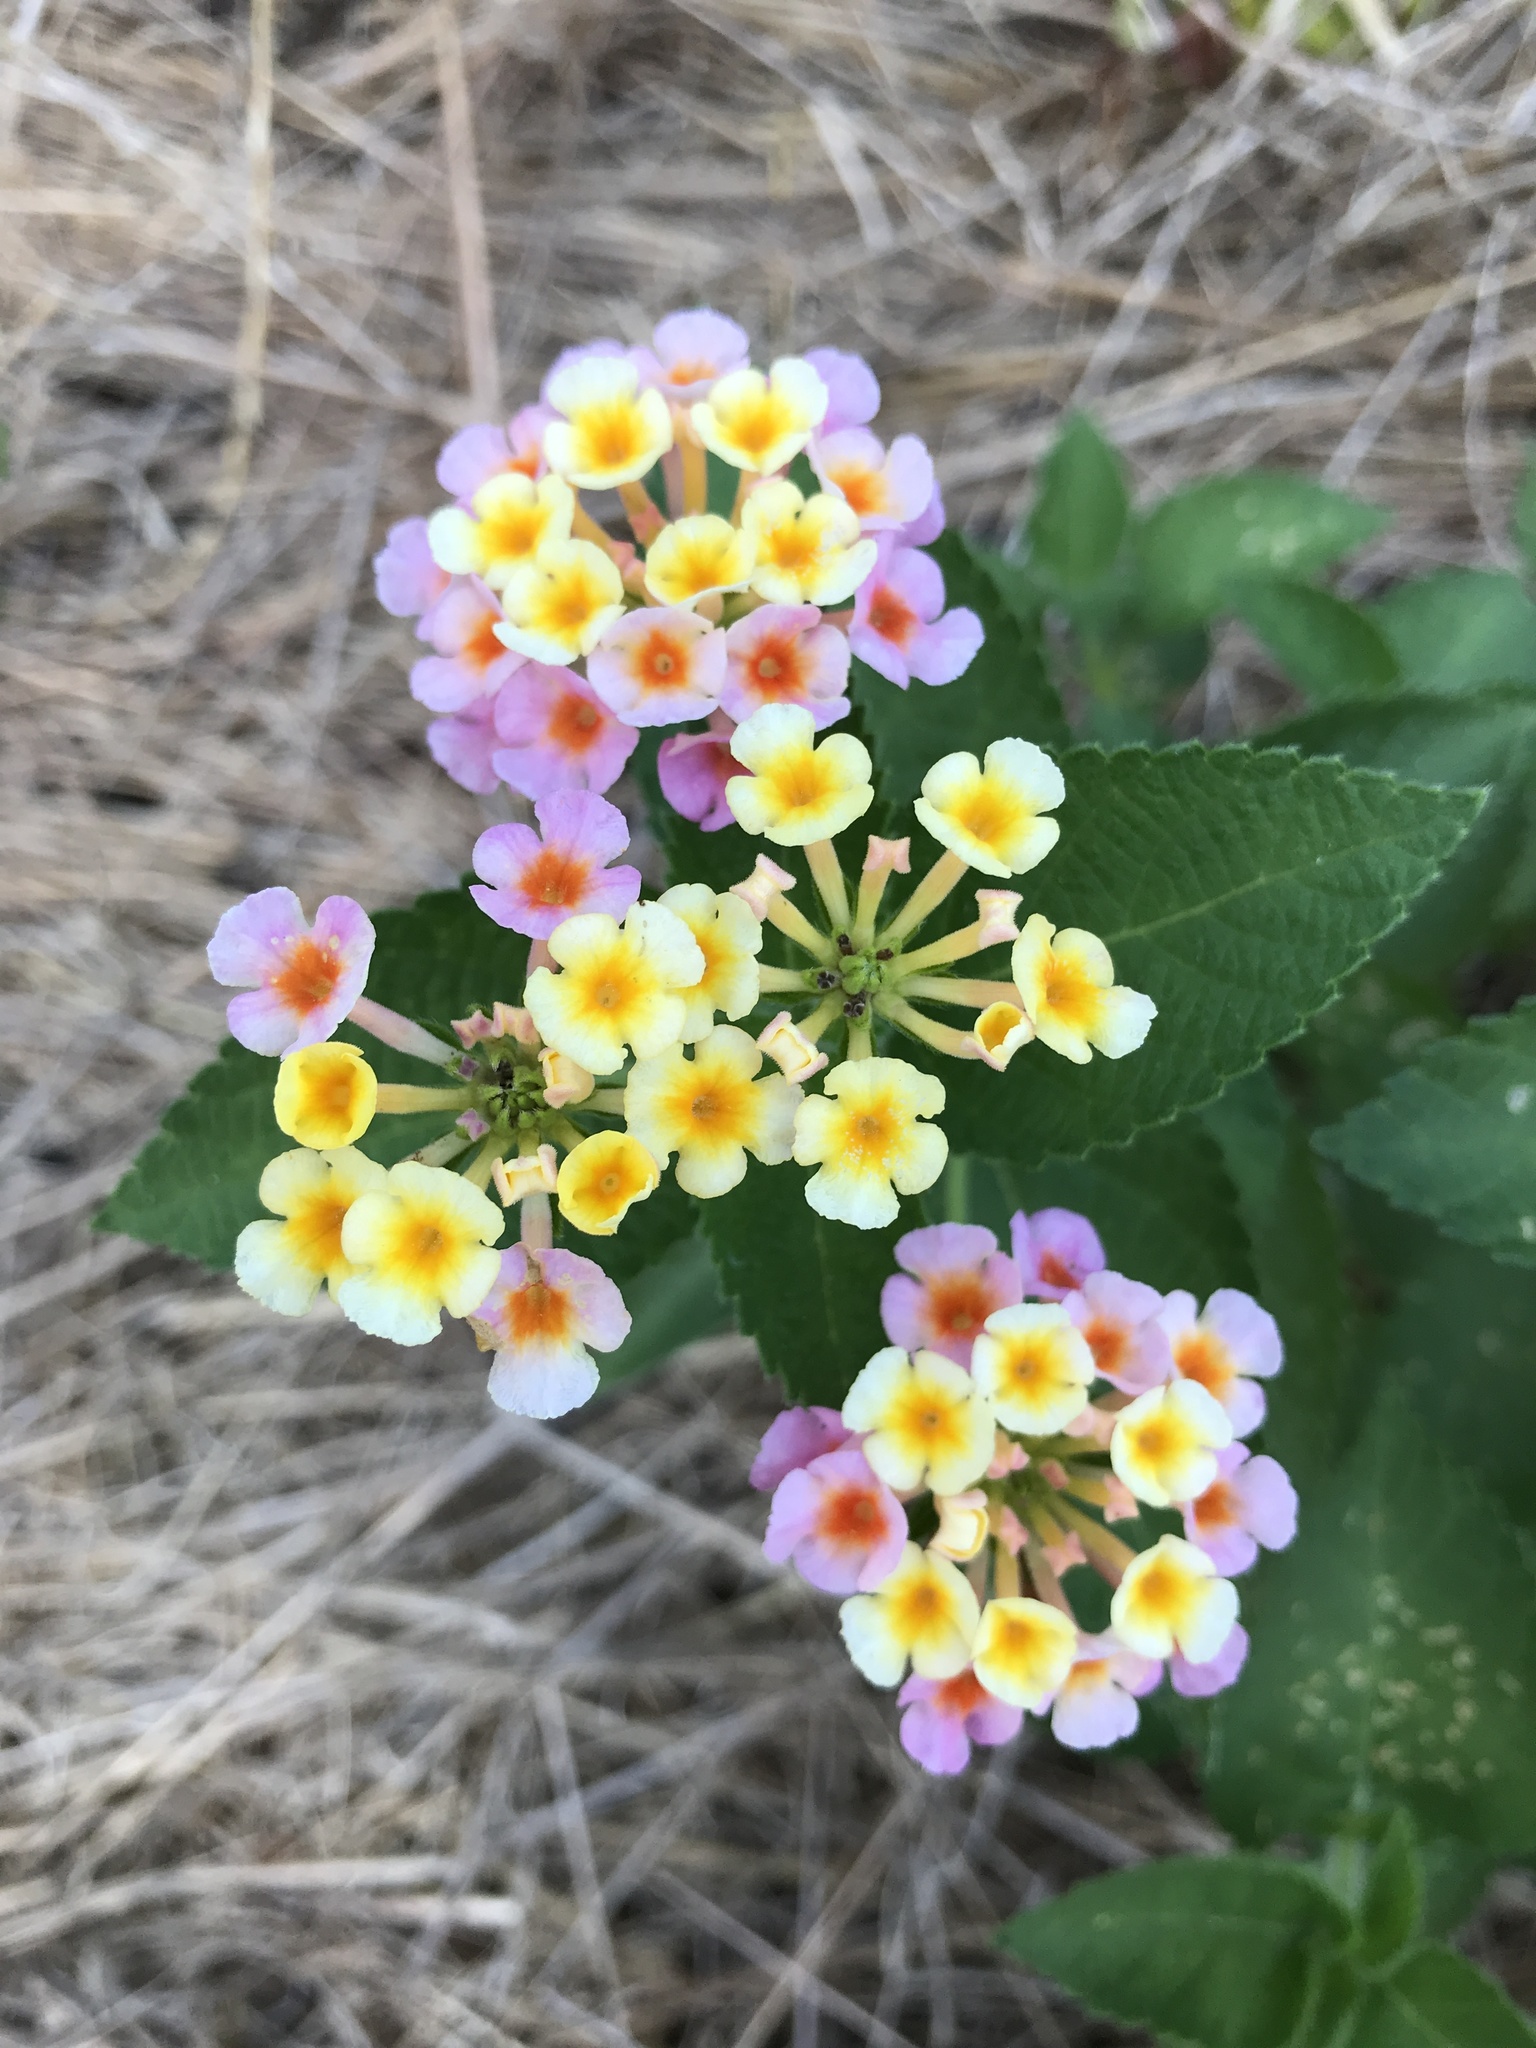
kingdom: Plantae
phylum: Tracheophyta
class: Magnoliopsida
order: Lamiales
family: Verbenaceae
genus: Lantana
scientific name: Lantana strigocamara
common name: Lantana
